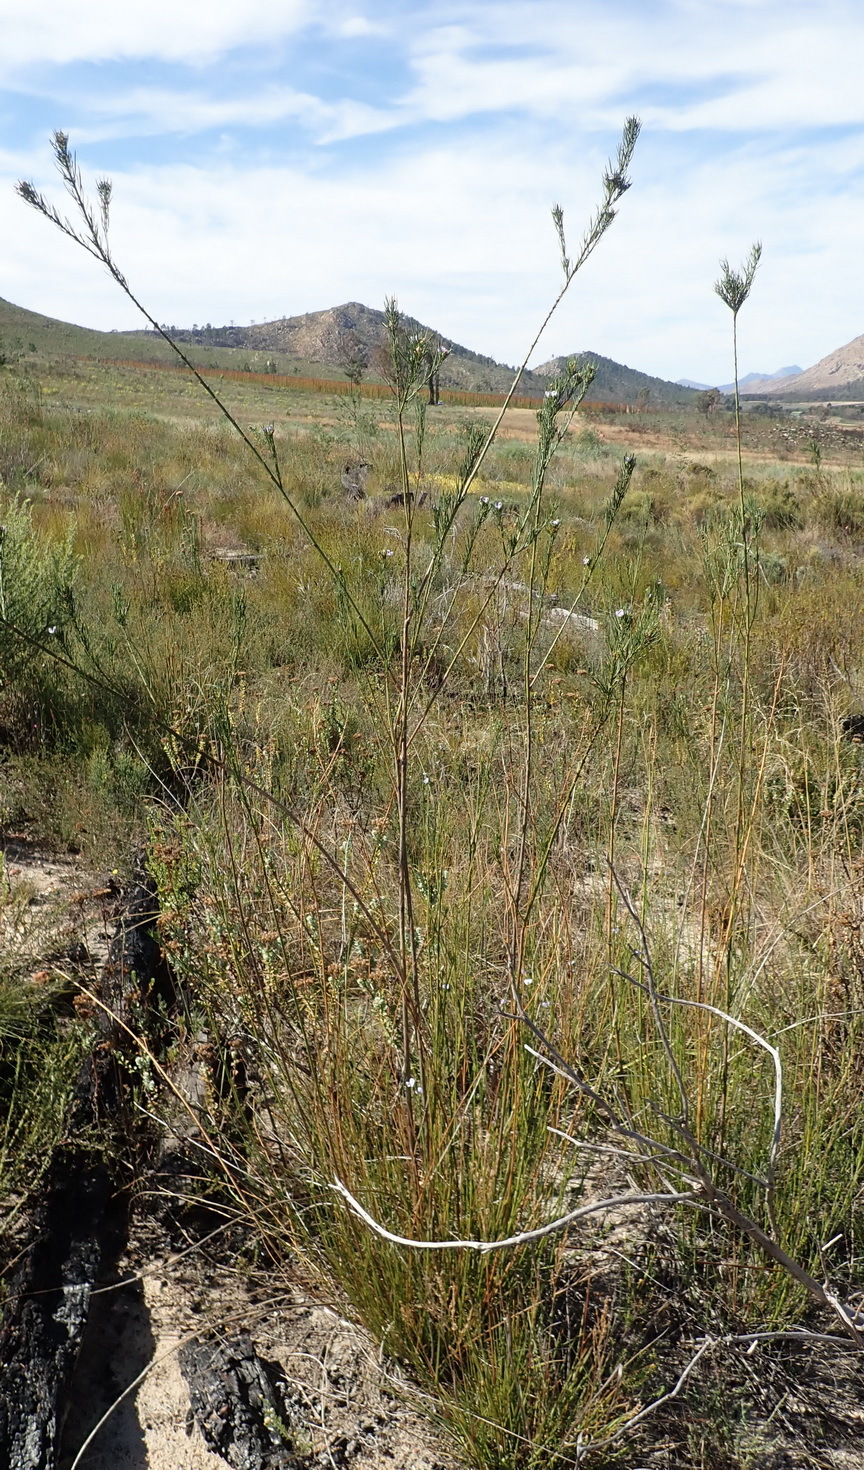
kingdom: Plantae
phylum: Tracheophyta
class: Magnoliopsida
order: Fabales
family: Fabaceae
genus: Psoralea
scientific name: Psoralea sordida
